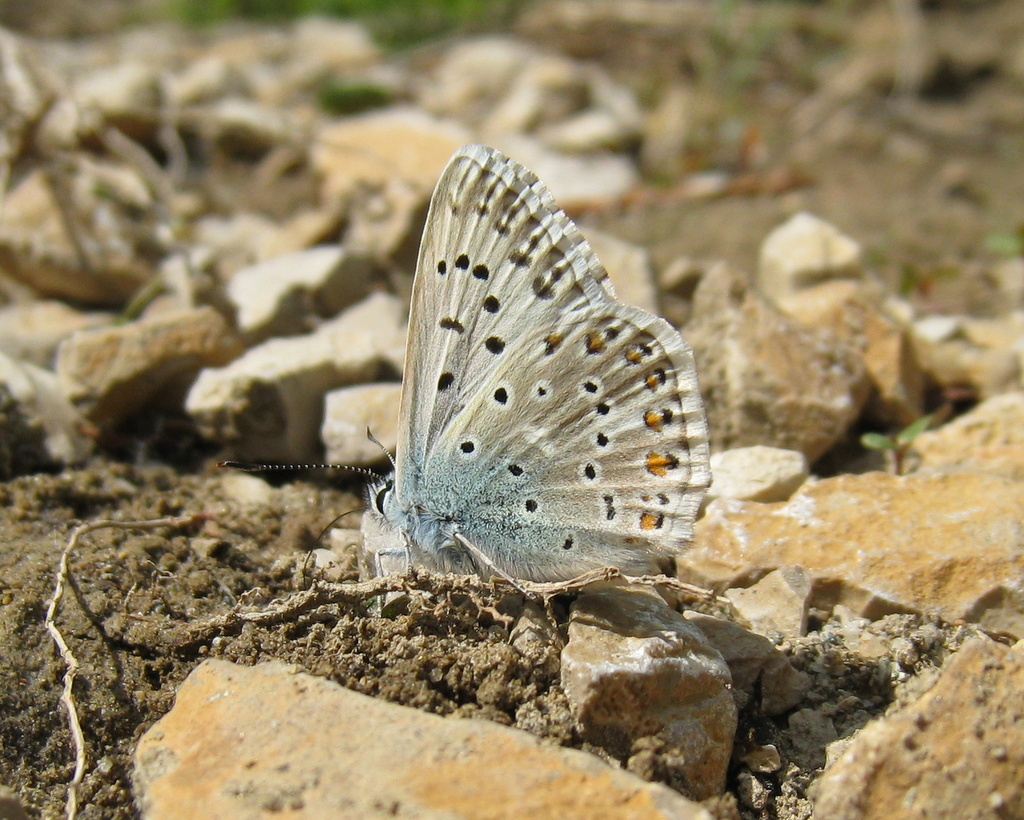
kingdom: Animalia
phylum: Arthropoda
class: Insecta
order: Lepidoptera
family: Lycaenidae
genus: Lysandra
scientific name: Lysandra hispana
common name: Provence chalkhill blue
